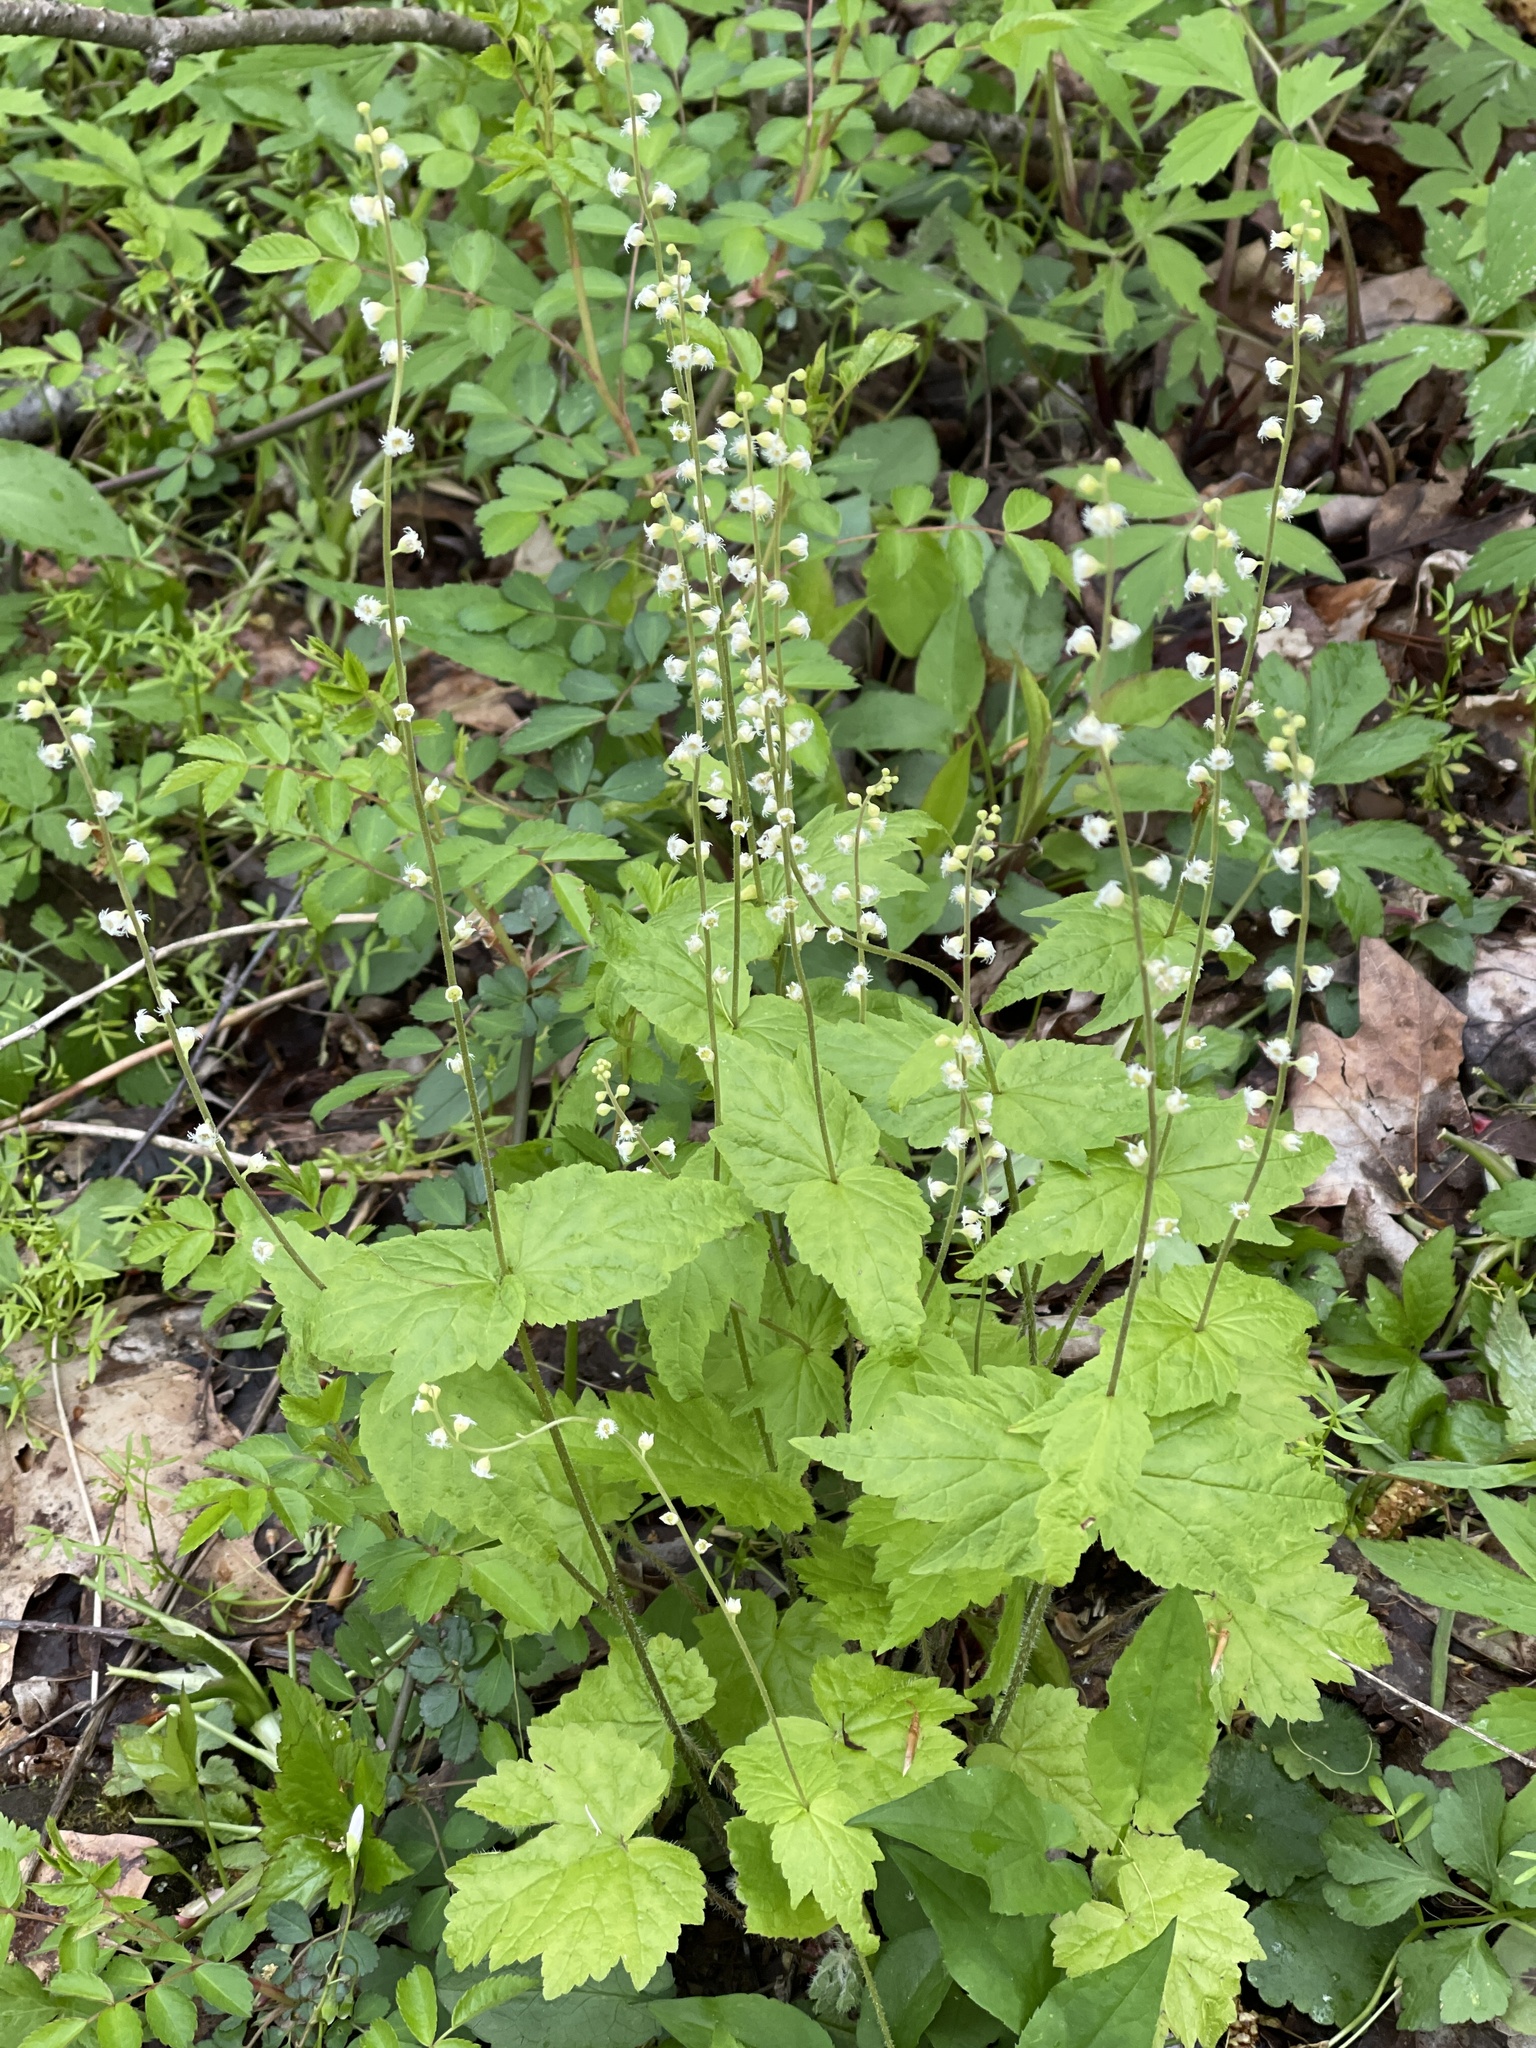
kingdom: Plantae
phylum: Tracheophyta
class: Magnoliopsida
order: Saxifragales
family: Saxifragaceae
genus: Mitella
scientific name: Mitella diphylla
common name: Coolwort
